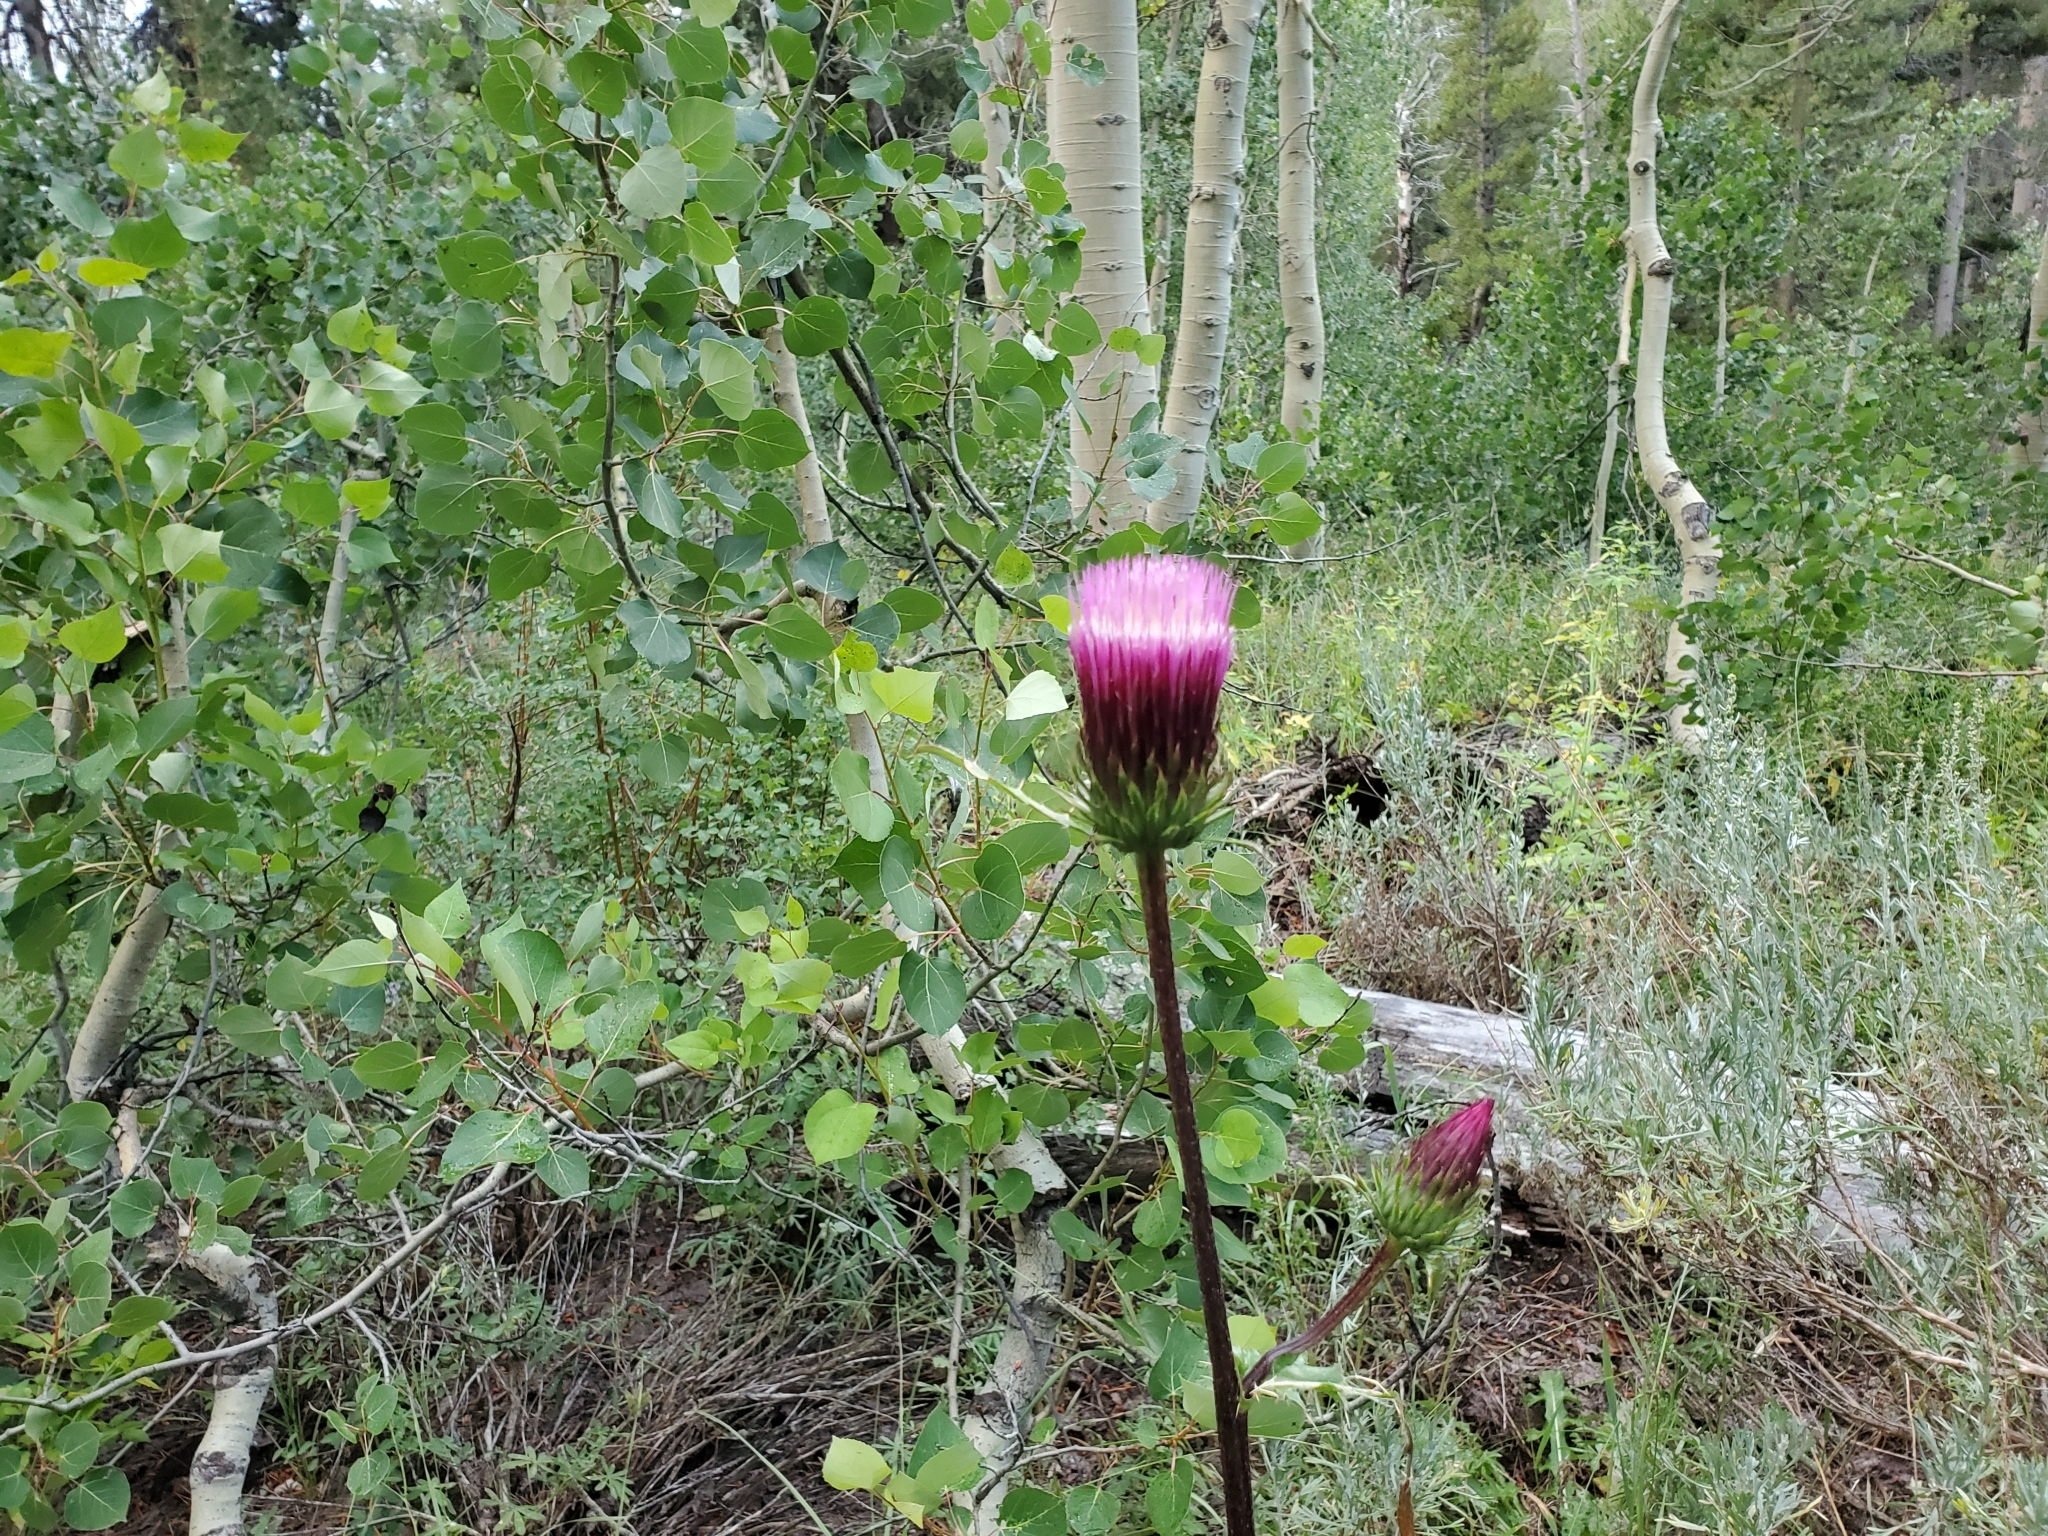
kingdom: Plantae
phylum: Tracheophyta
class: Magnoliopsida
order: Asterales
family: Asteraceae
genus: Cirsium
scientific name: Cirsium andersonii
